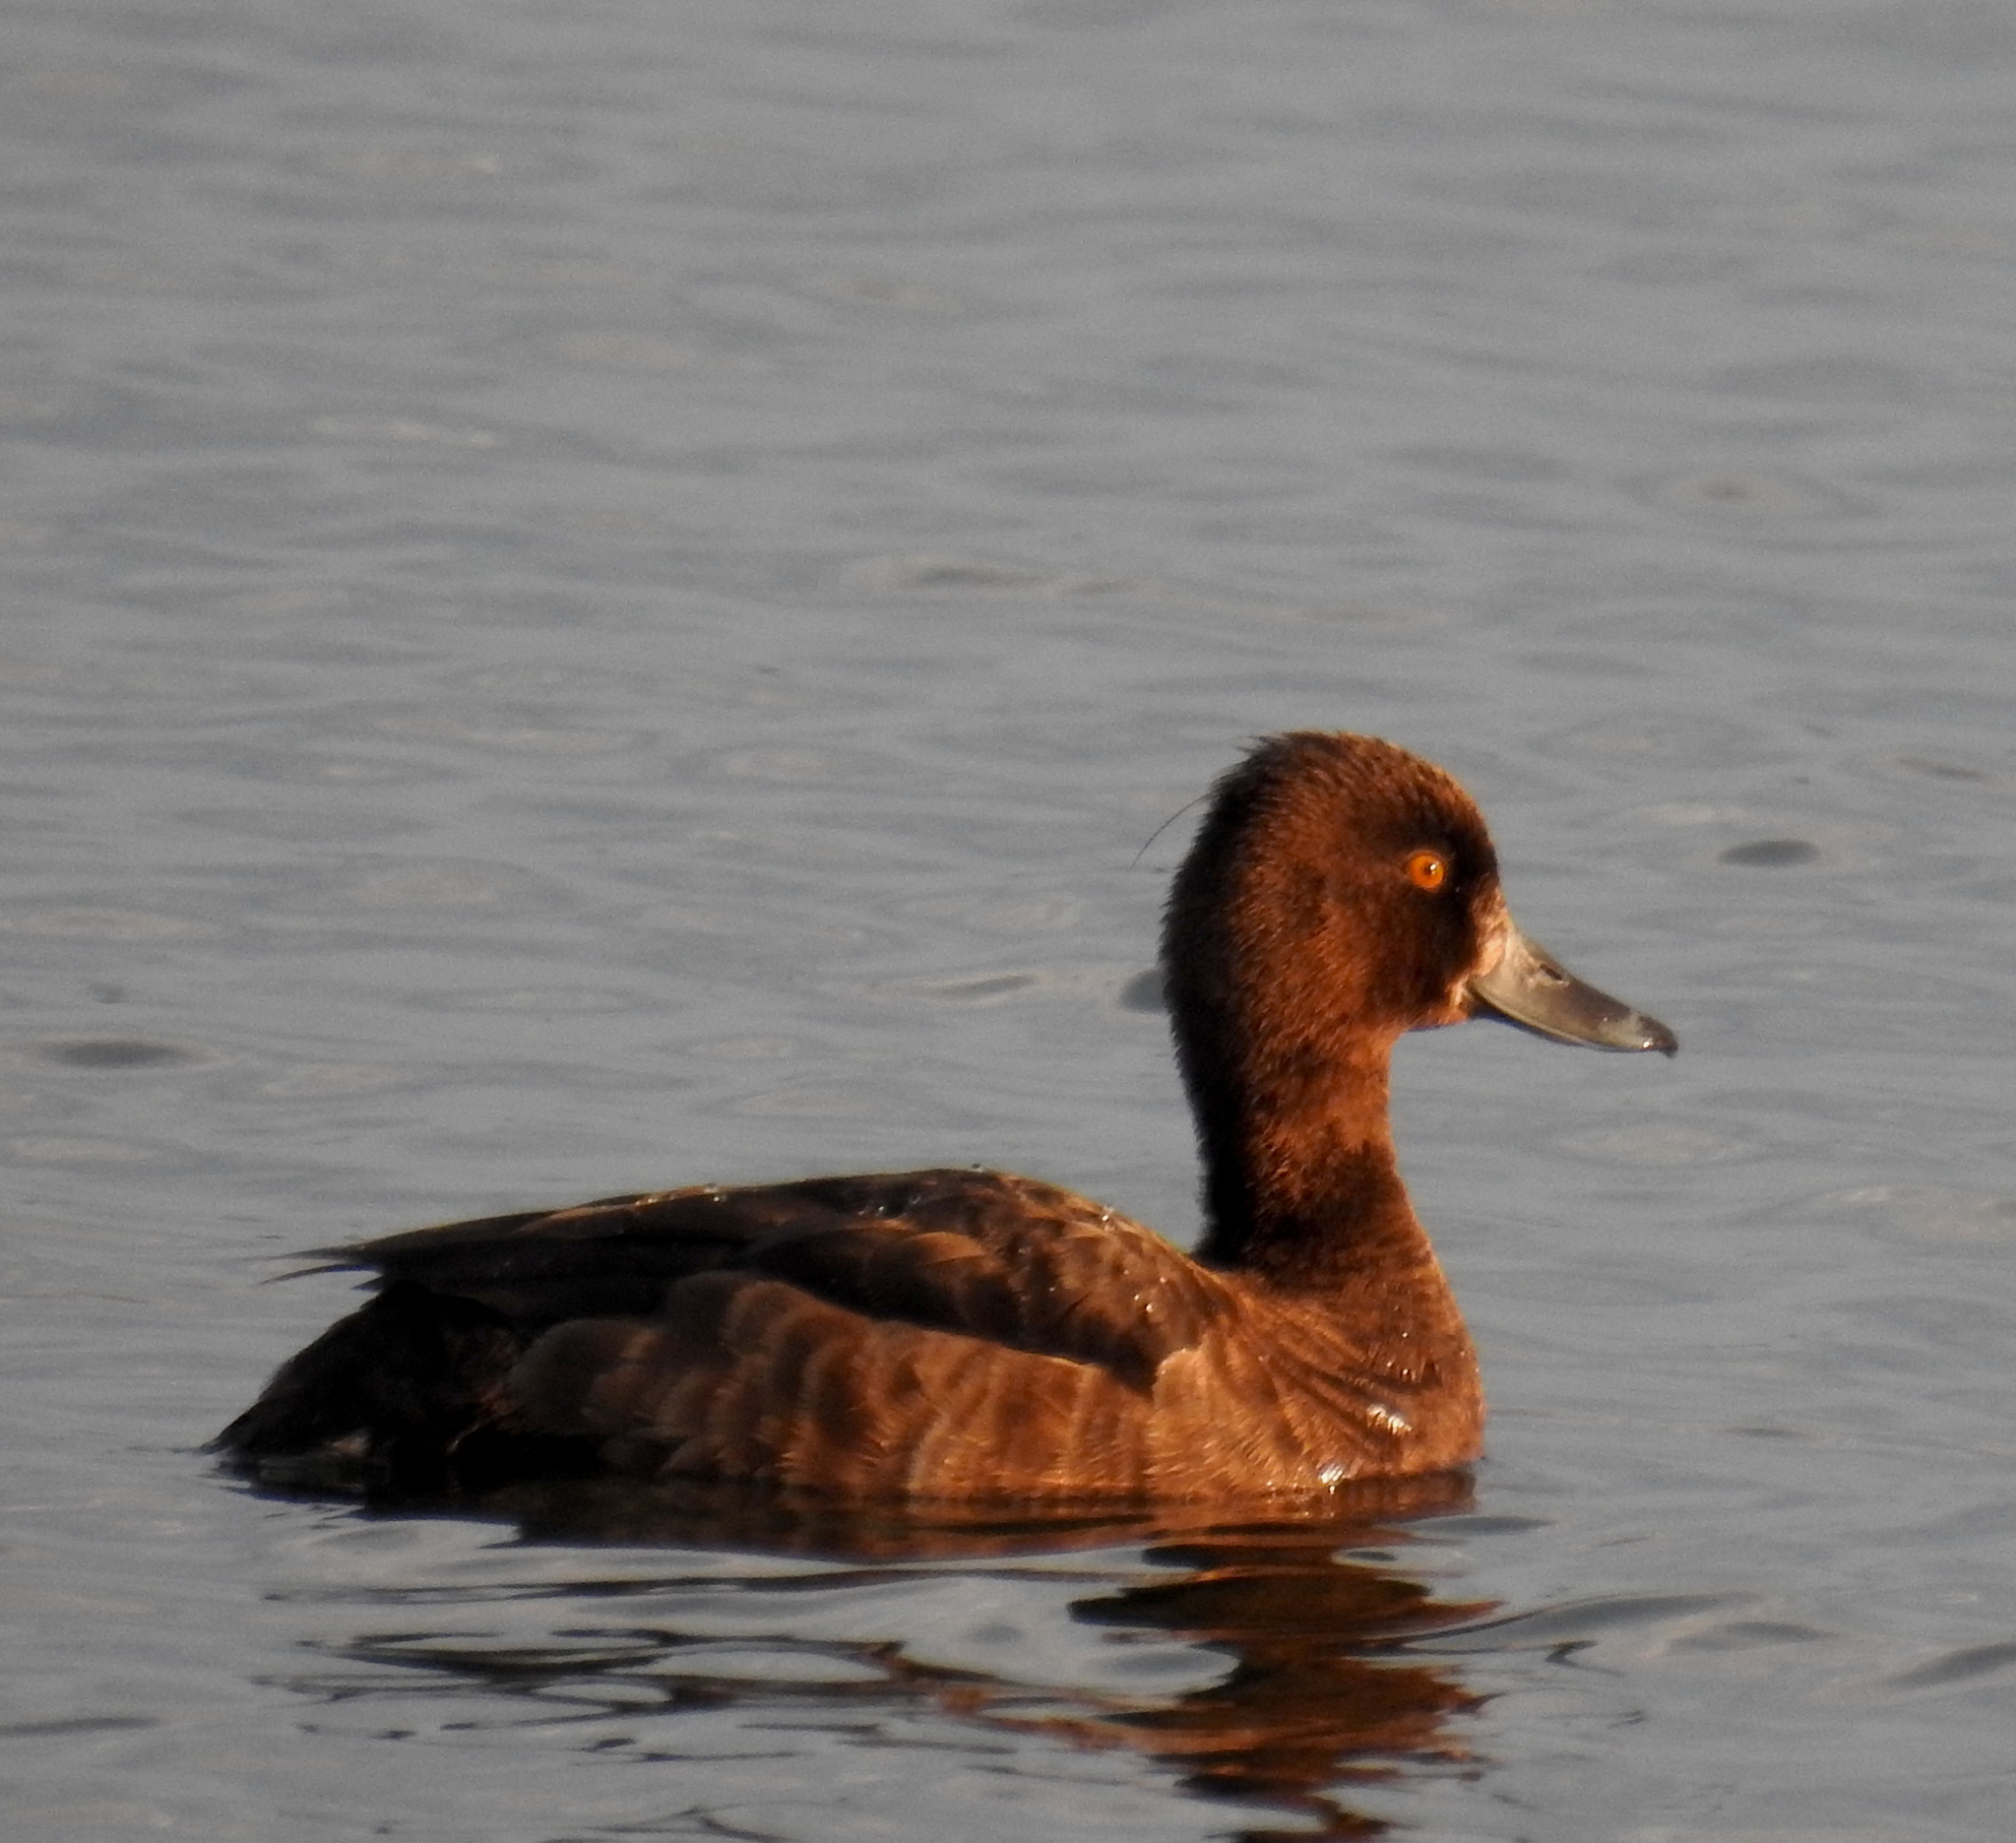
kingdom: Animalia
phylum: Chordata
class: Aves
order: Anseriformes
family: Anatidae
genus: Aythya
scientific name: Aythya fuligula
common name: Tufted duck
